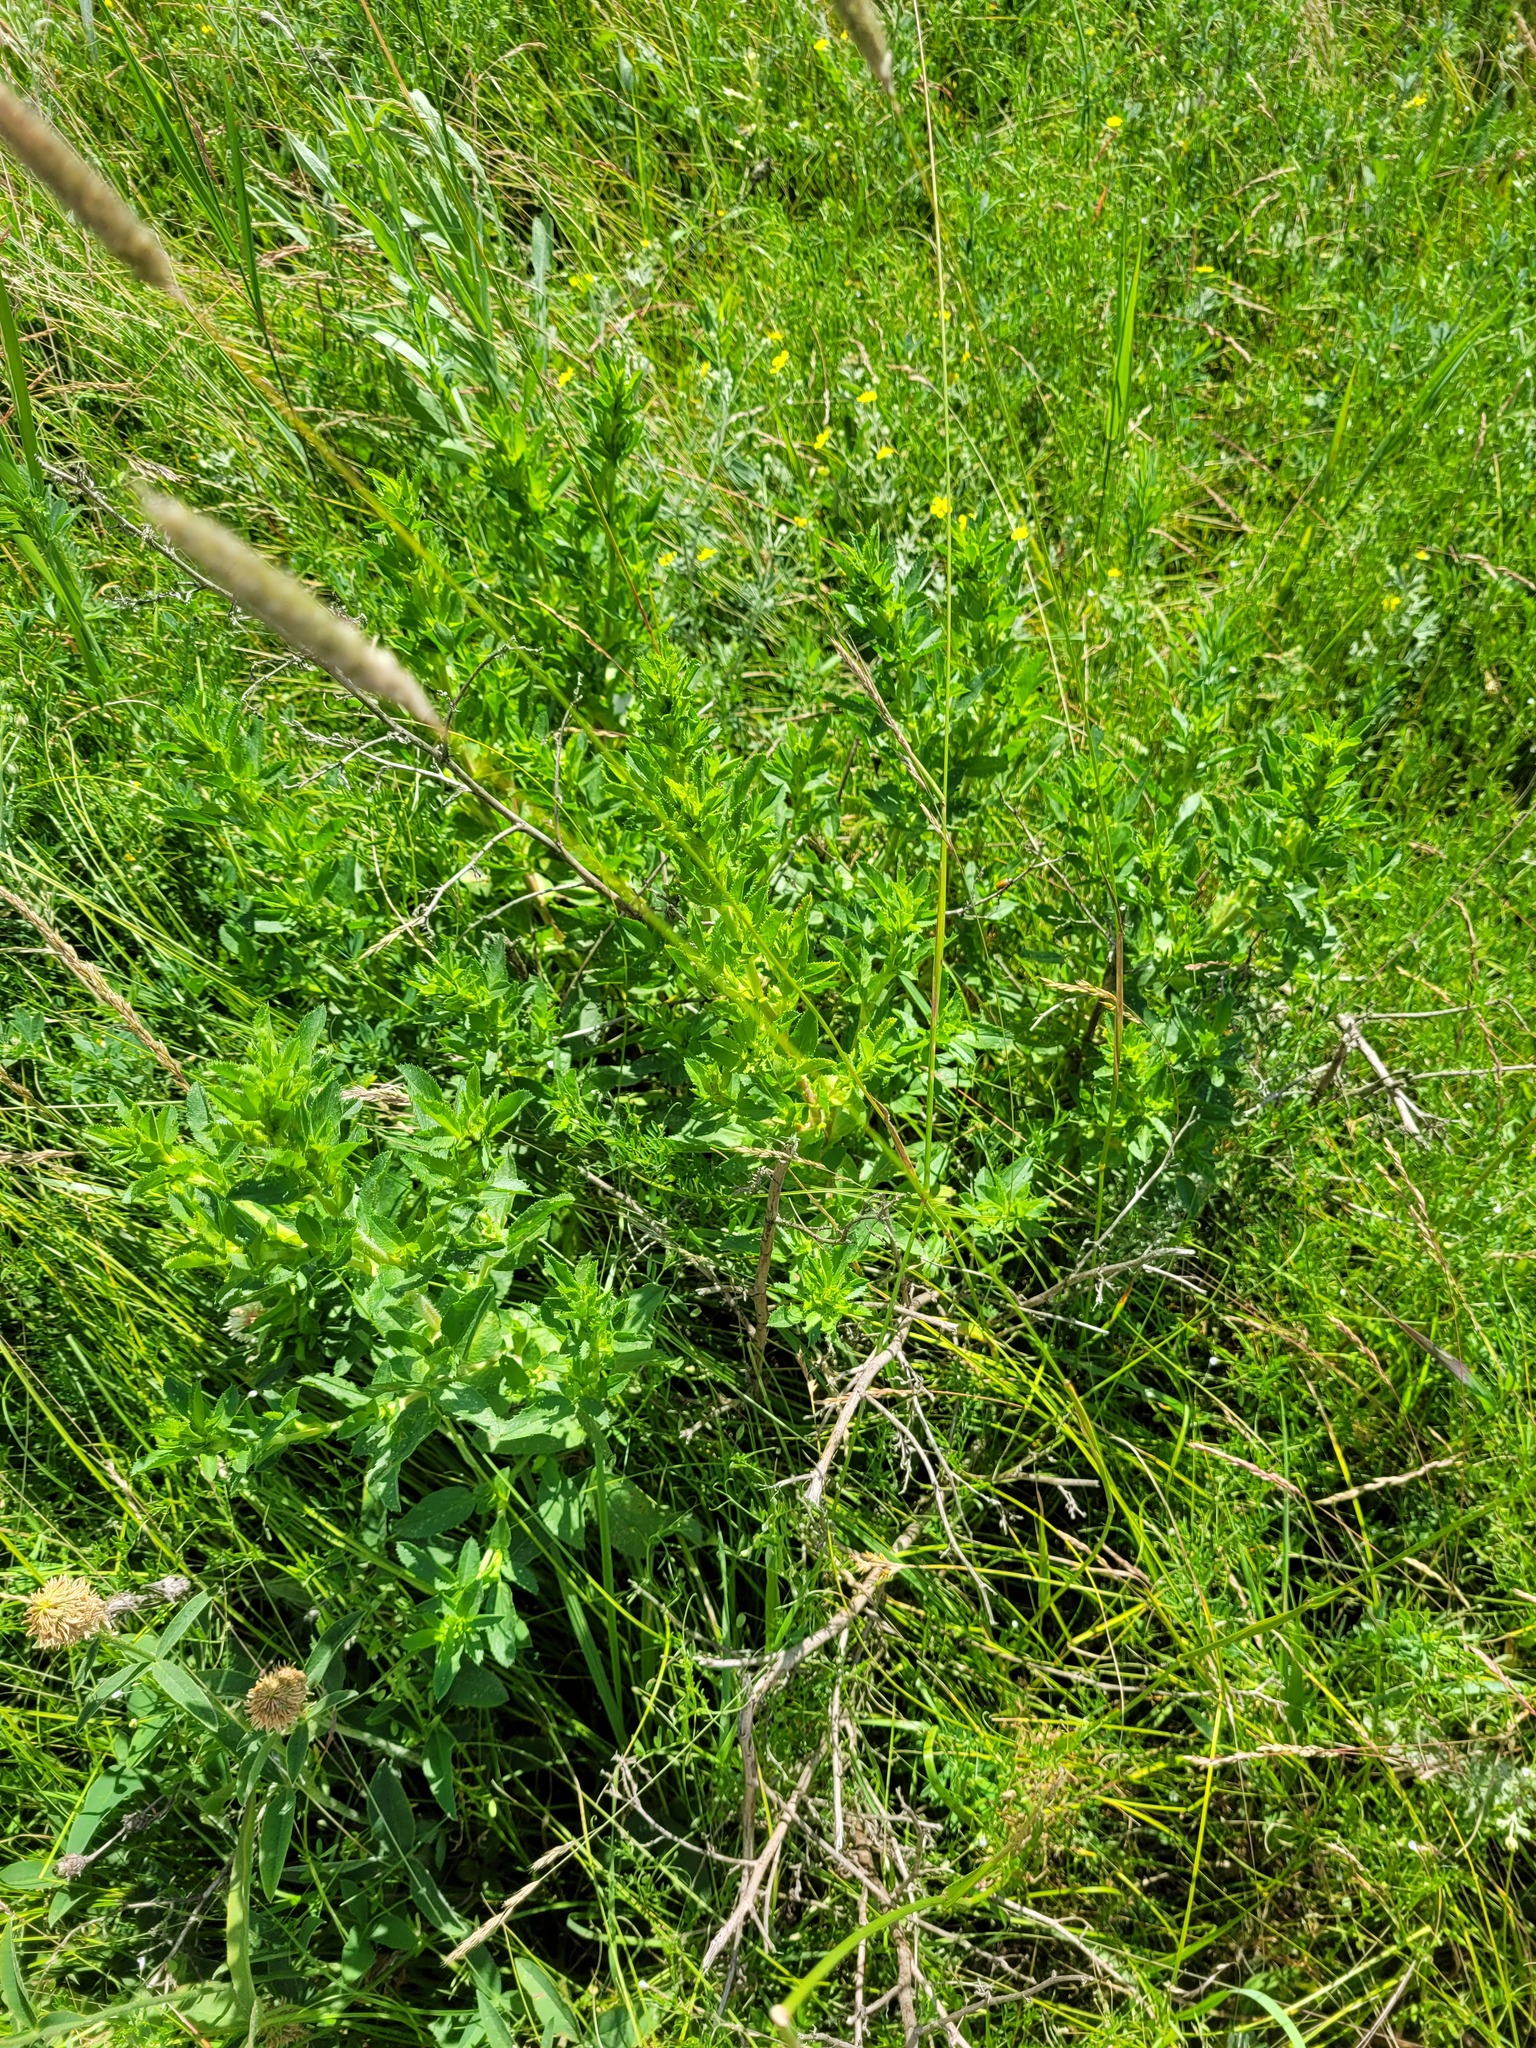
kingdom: Plantae
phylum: Tracheophyta
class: Magnoliopsida
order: Fabales
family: Fabaceae
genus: Ononis
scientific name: Ononis arvensis
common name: Field restharrow
